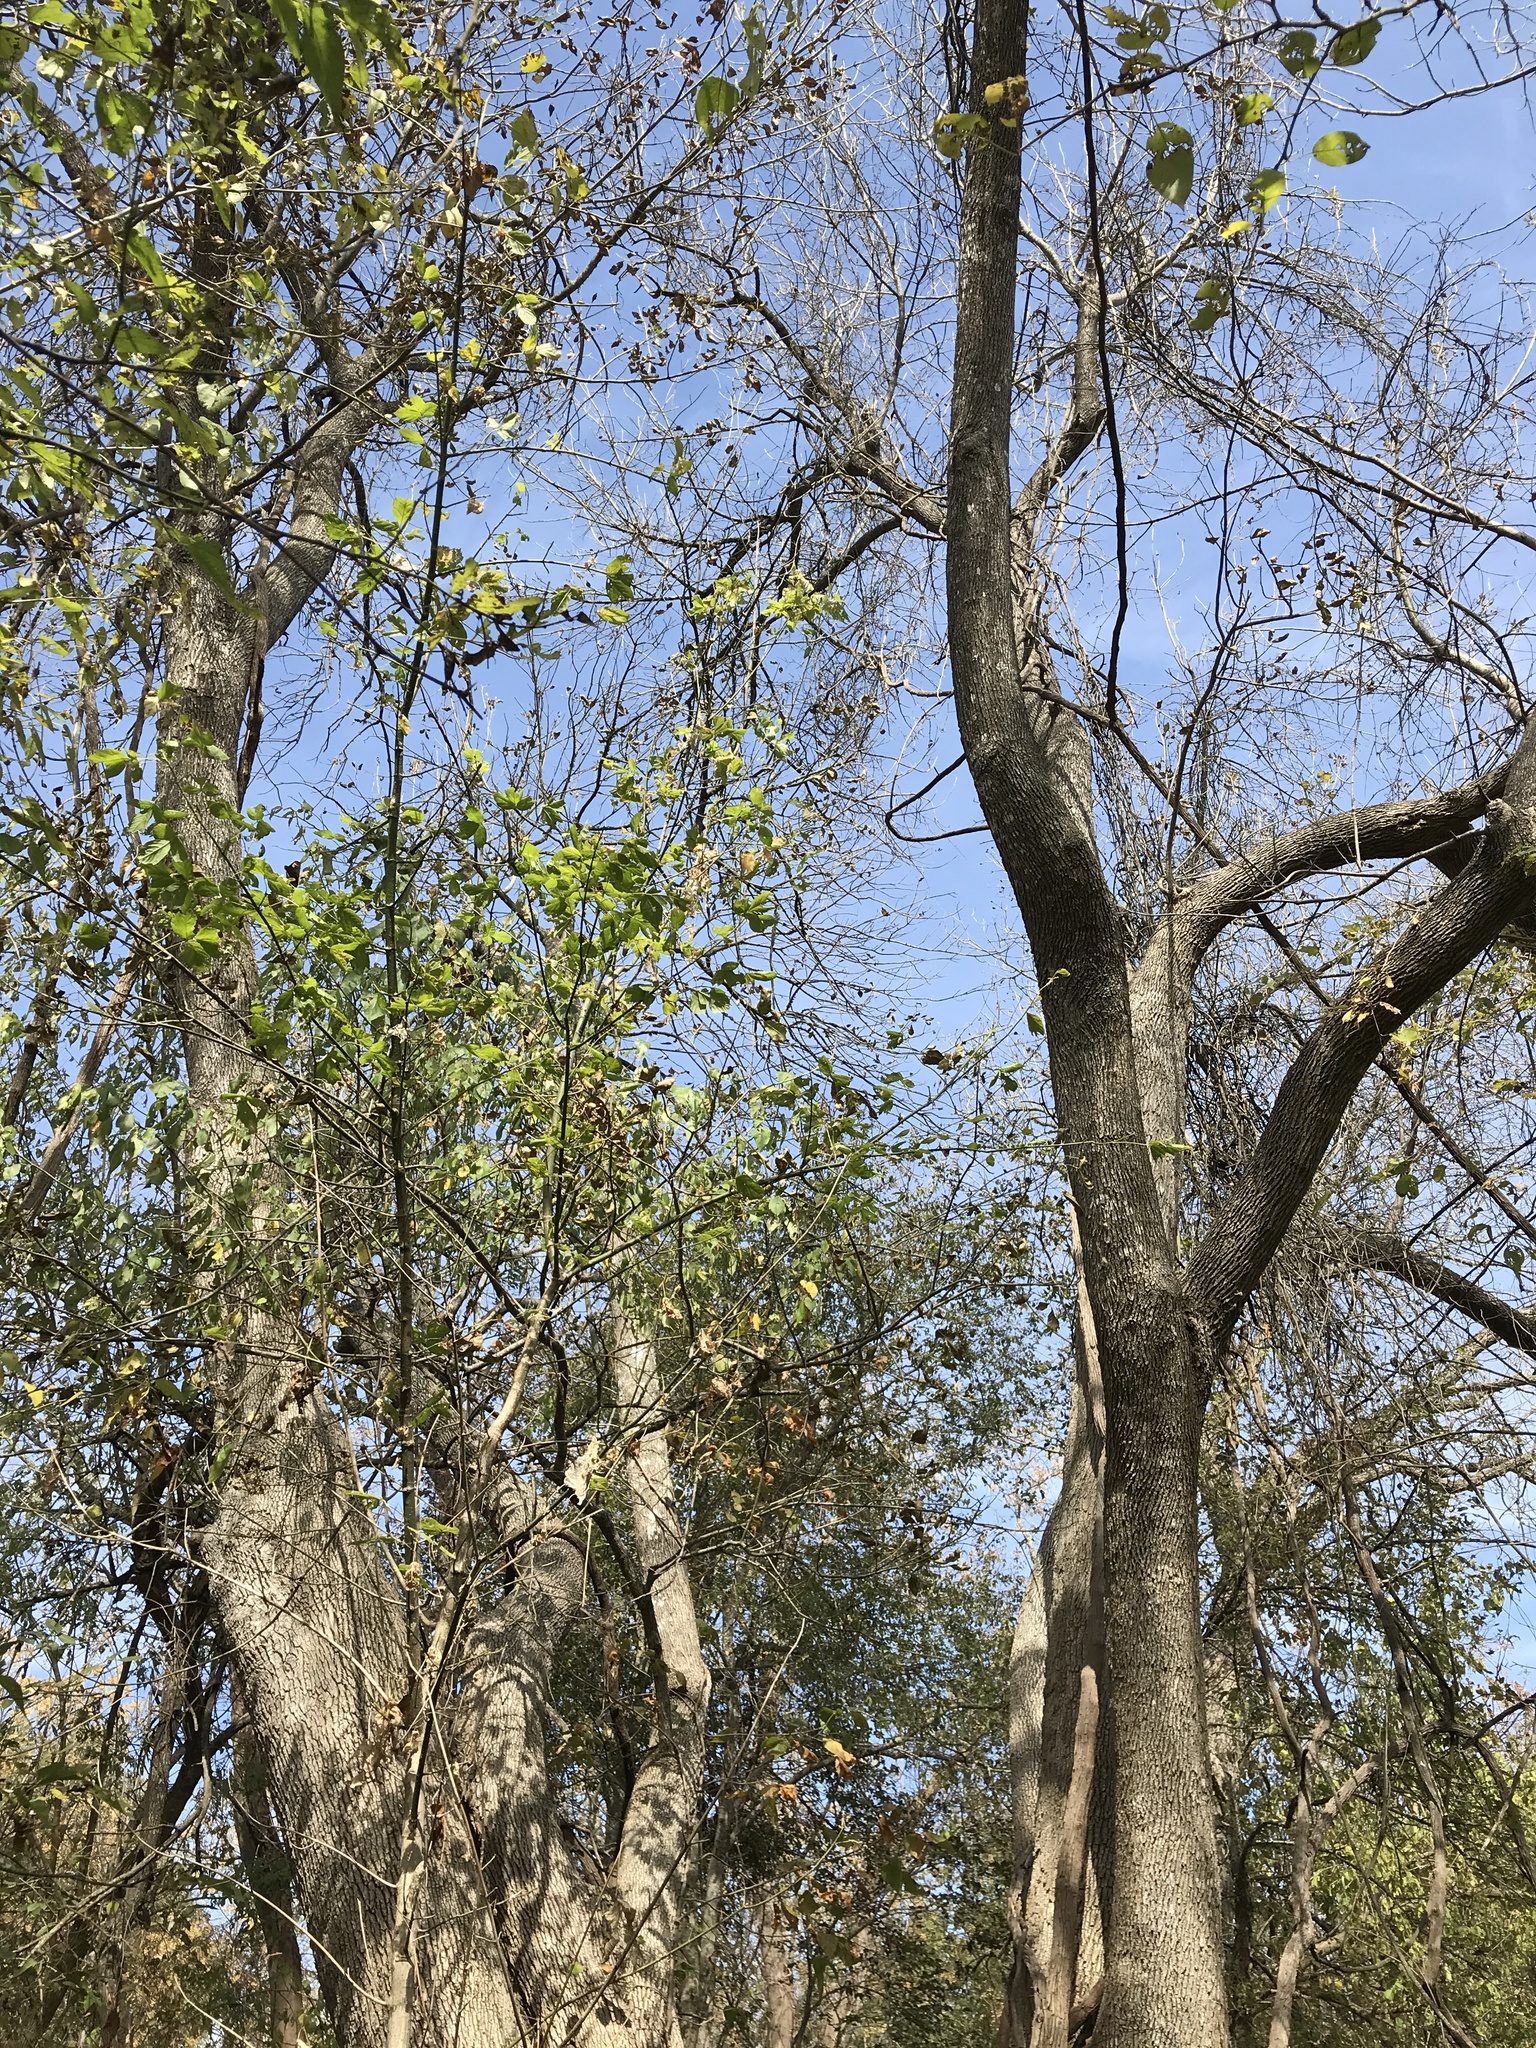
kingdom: Plantae
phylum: Tracheophyta
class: Magnoliopsida
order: Lamiales
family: Oleaceae
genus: Fraxinus
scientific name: Fraxinus pennsylvanica
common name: Green ash
